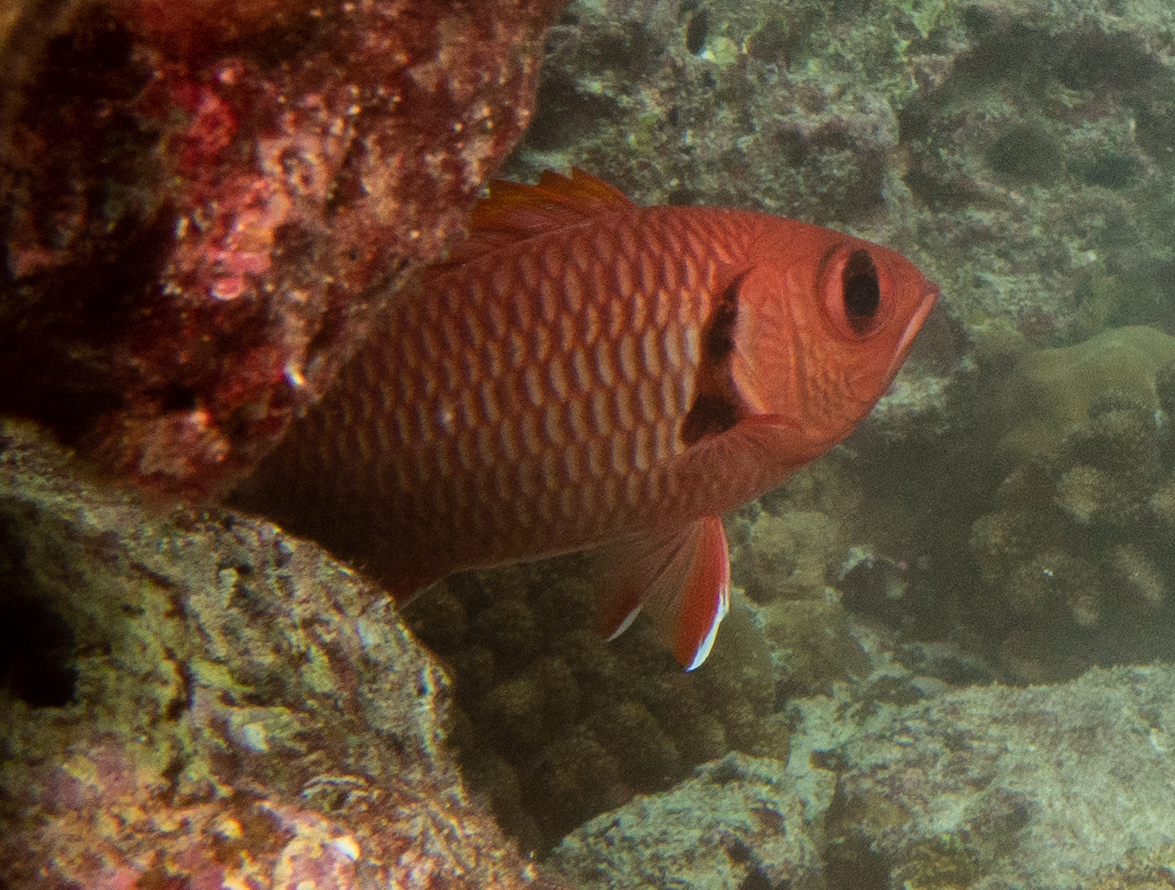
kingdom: Animalia
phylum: Chordata
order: Beryciformes
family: Holocentridae
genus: Myripristis
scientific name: Myripristis berndti
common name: Bigscale soldierfish
